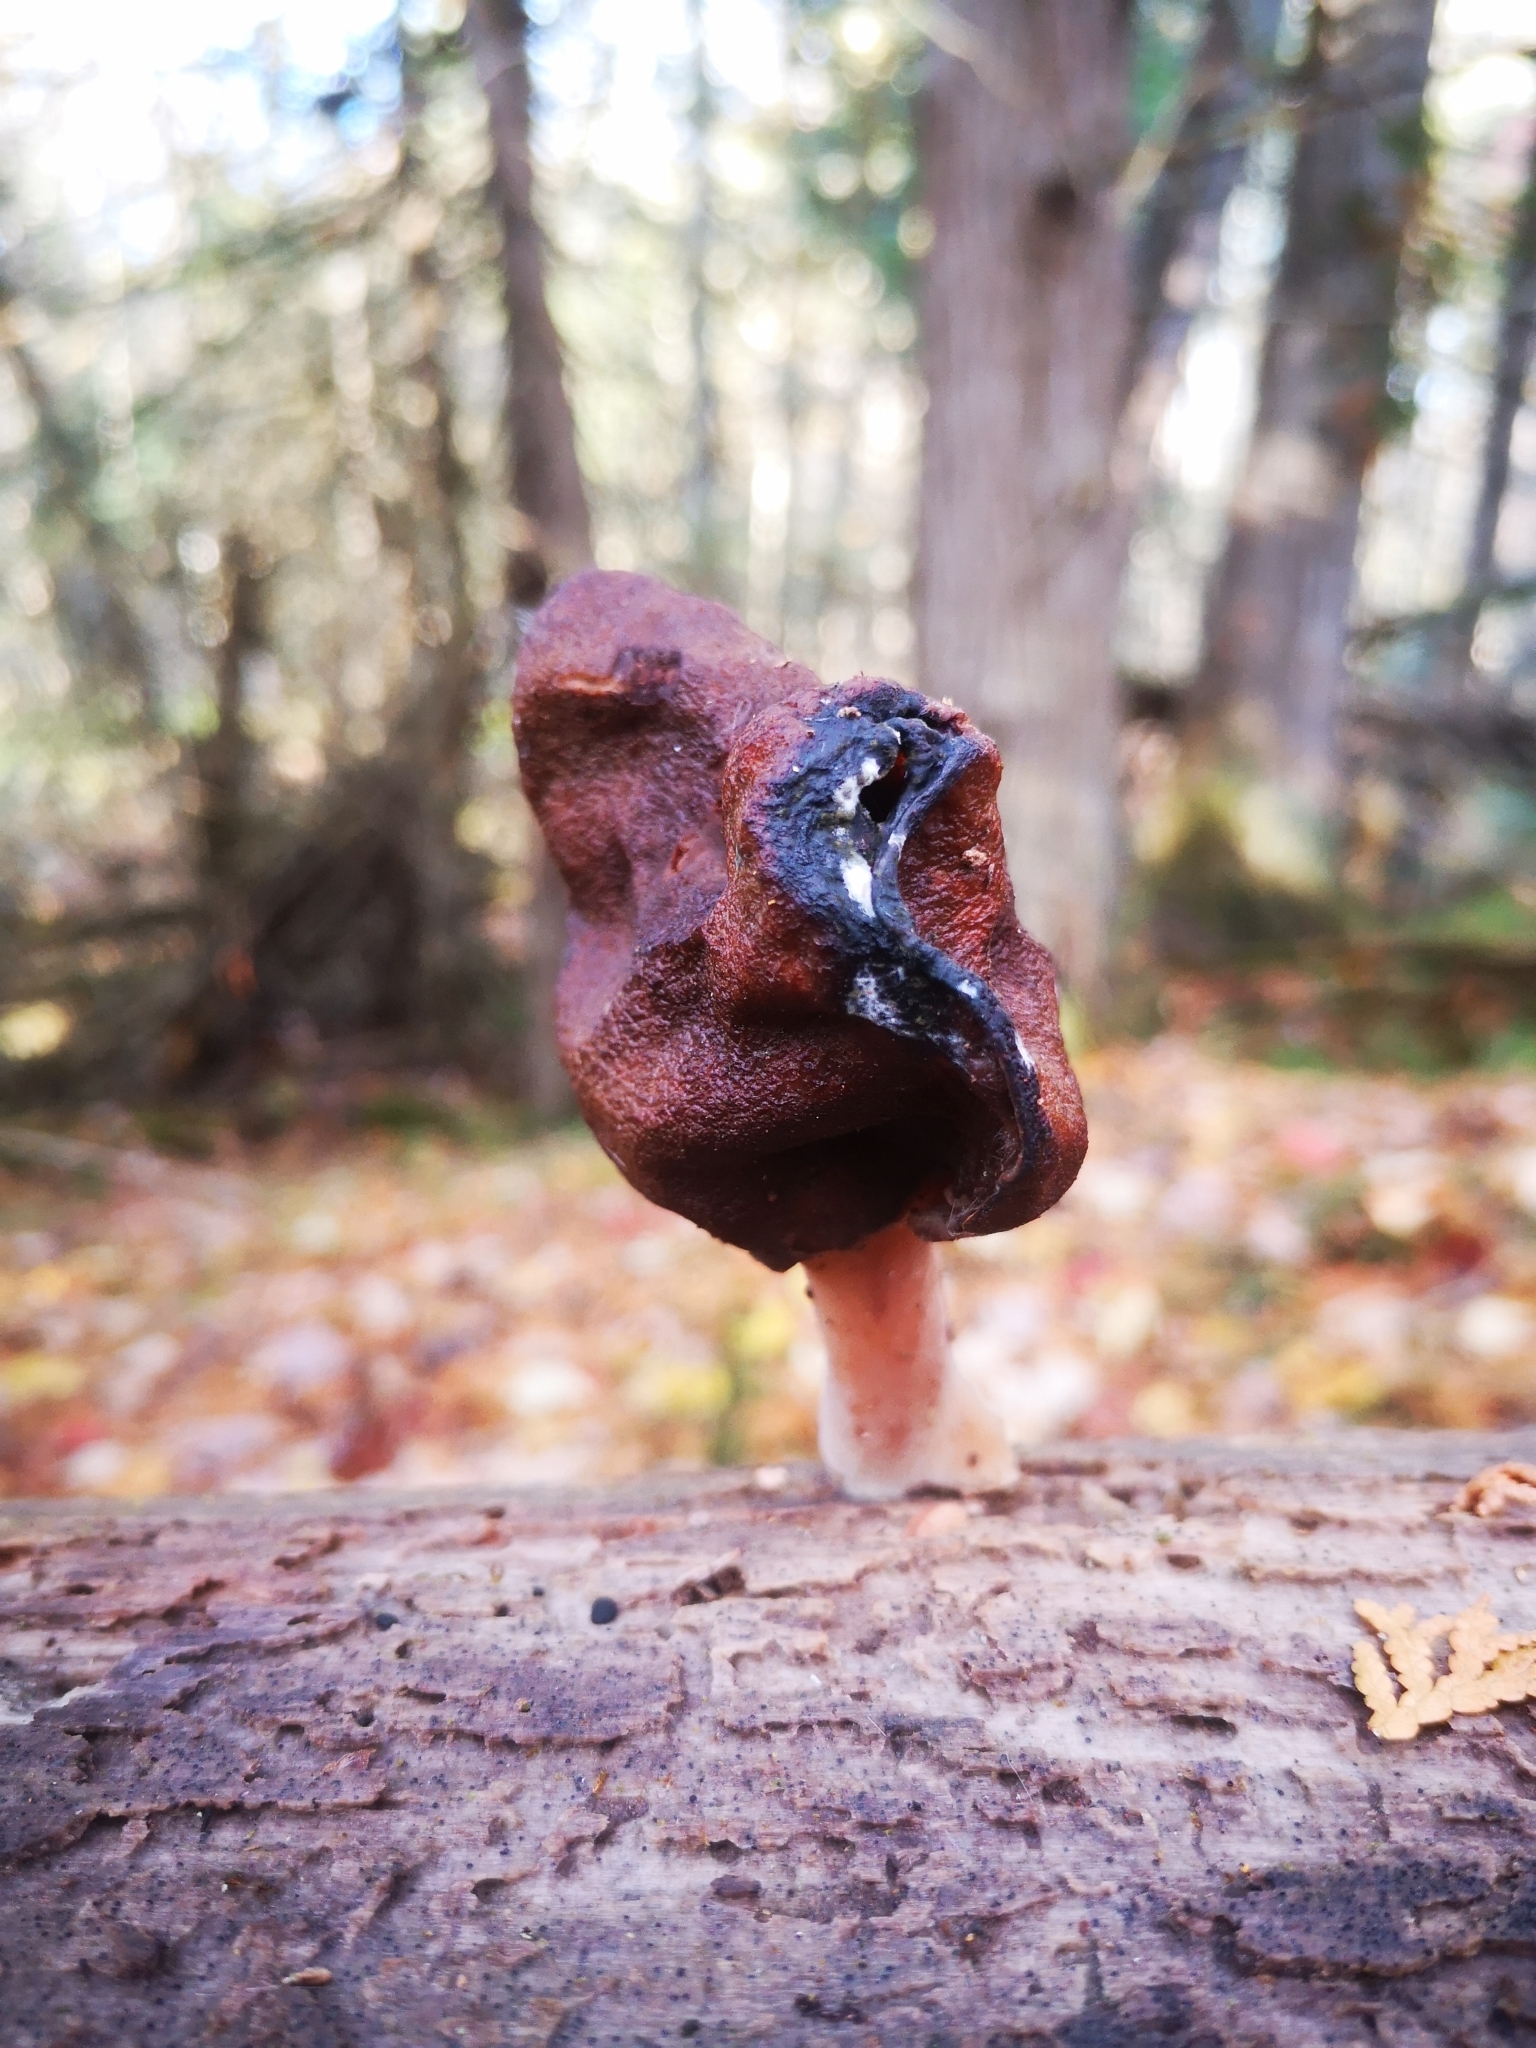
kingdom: Fungi
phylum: Ascomycota
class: Pezizomycetes
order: Pezizales
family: Discinaceae
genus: Gyromitra
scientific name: Gyromitra infula
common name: Pouched false morel
